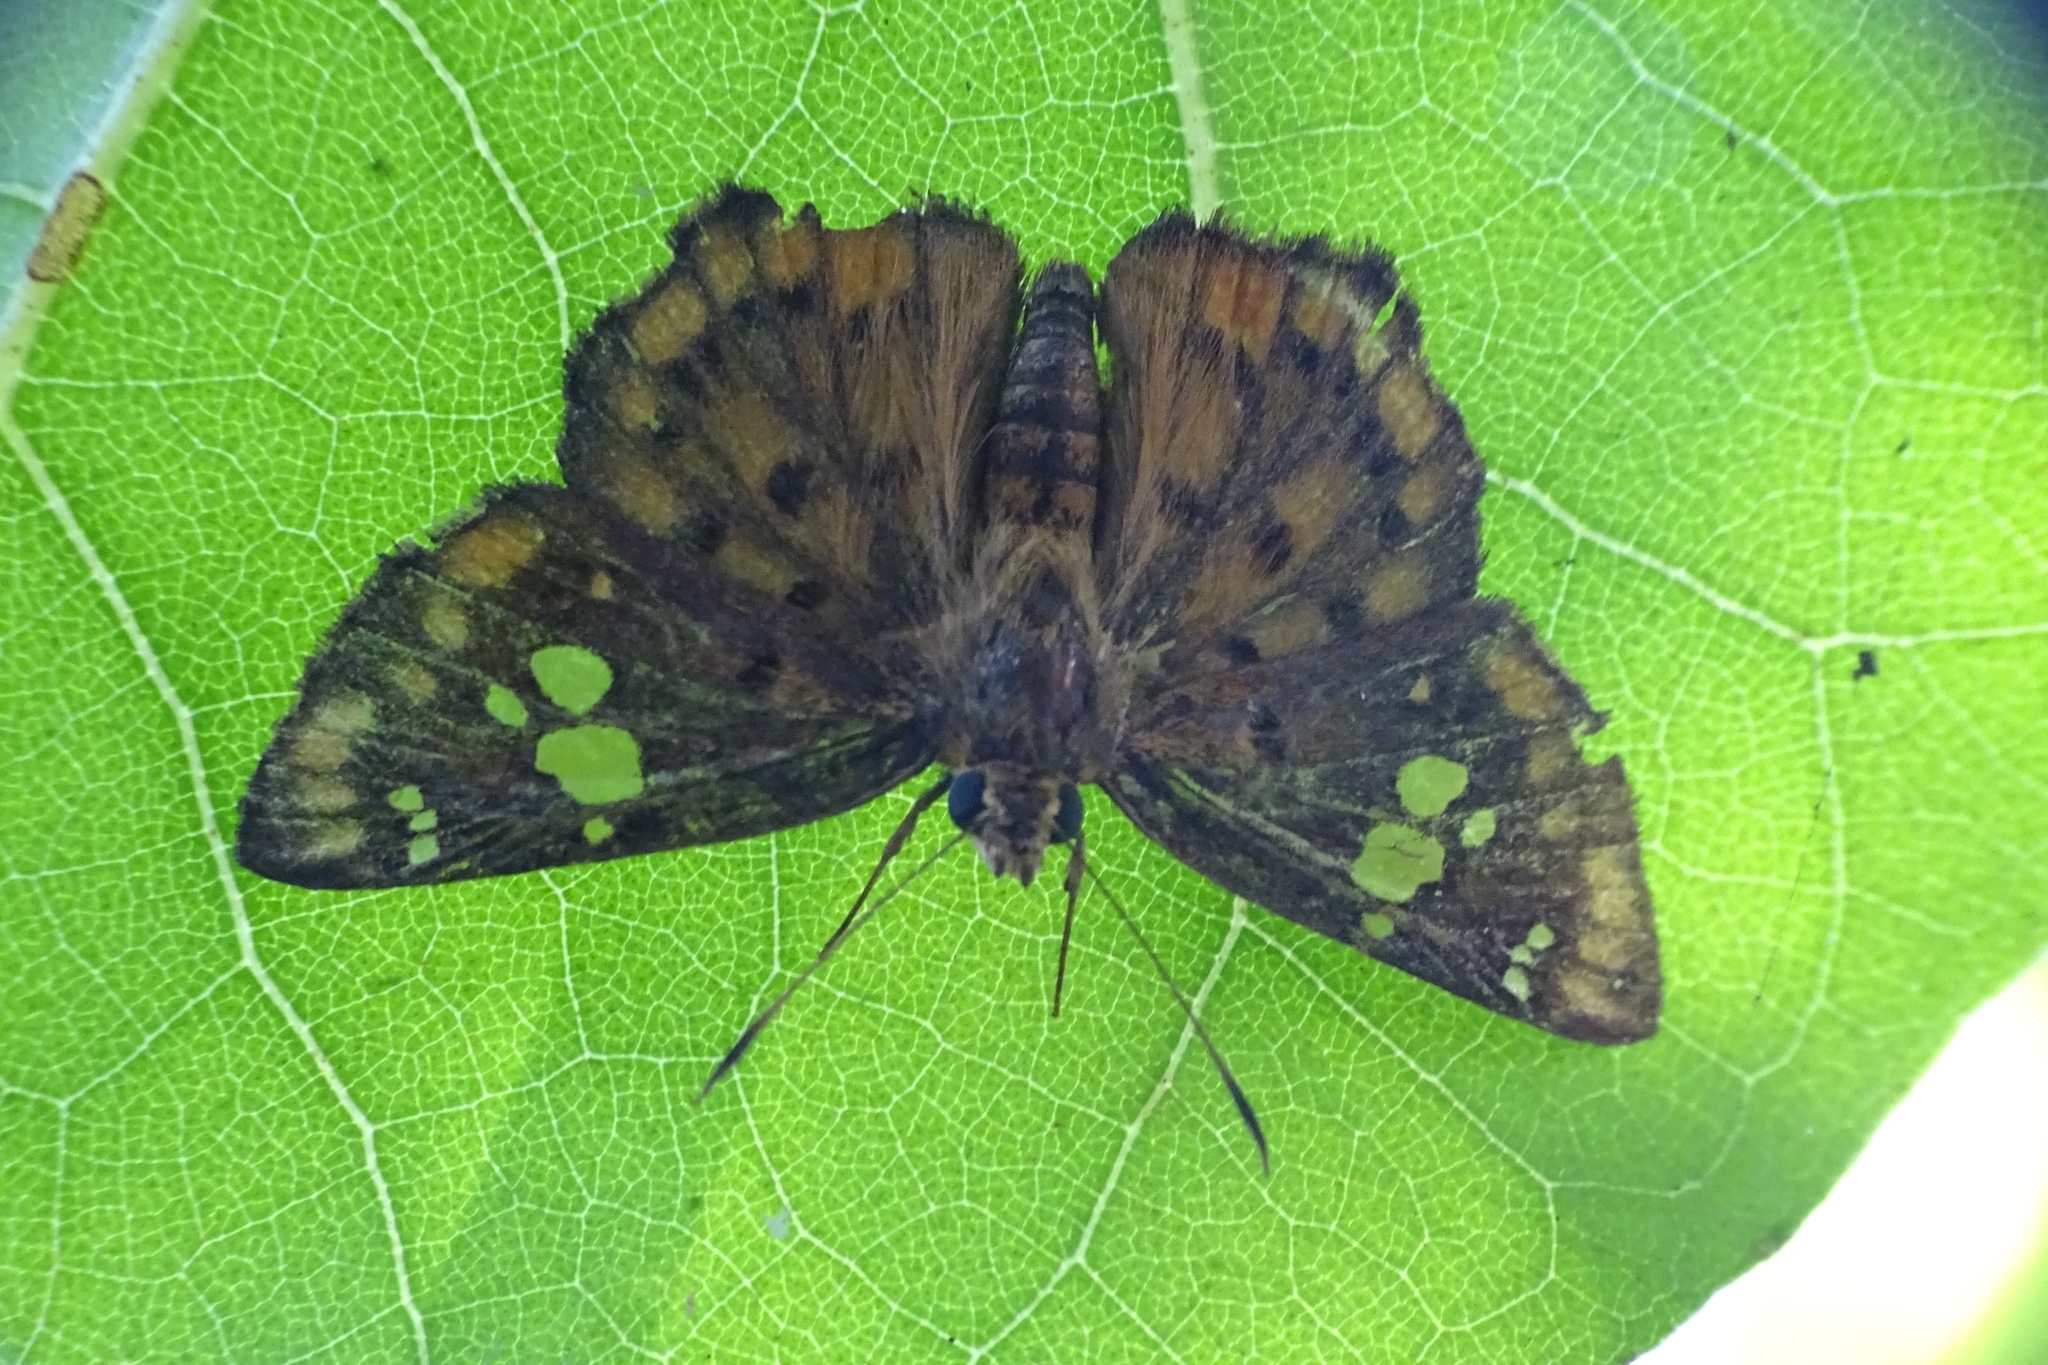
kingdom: Animalia
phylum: Arthropoda
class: Insecta
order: Lepidoptera
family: Hesperiidae
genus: Coladenia
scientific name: Coladenia
